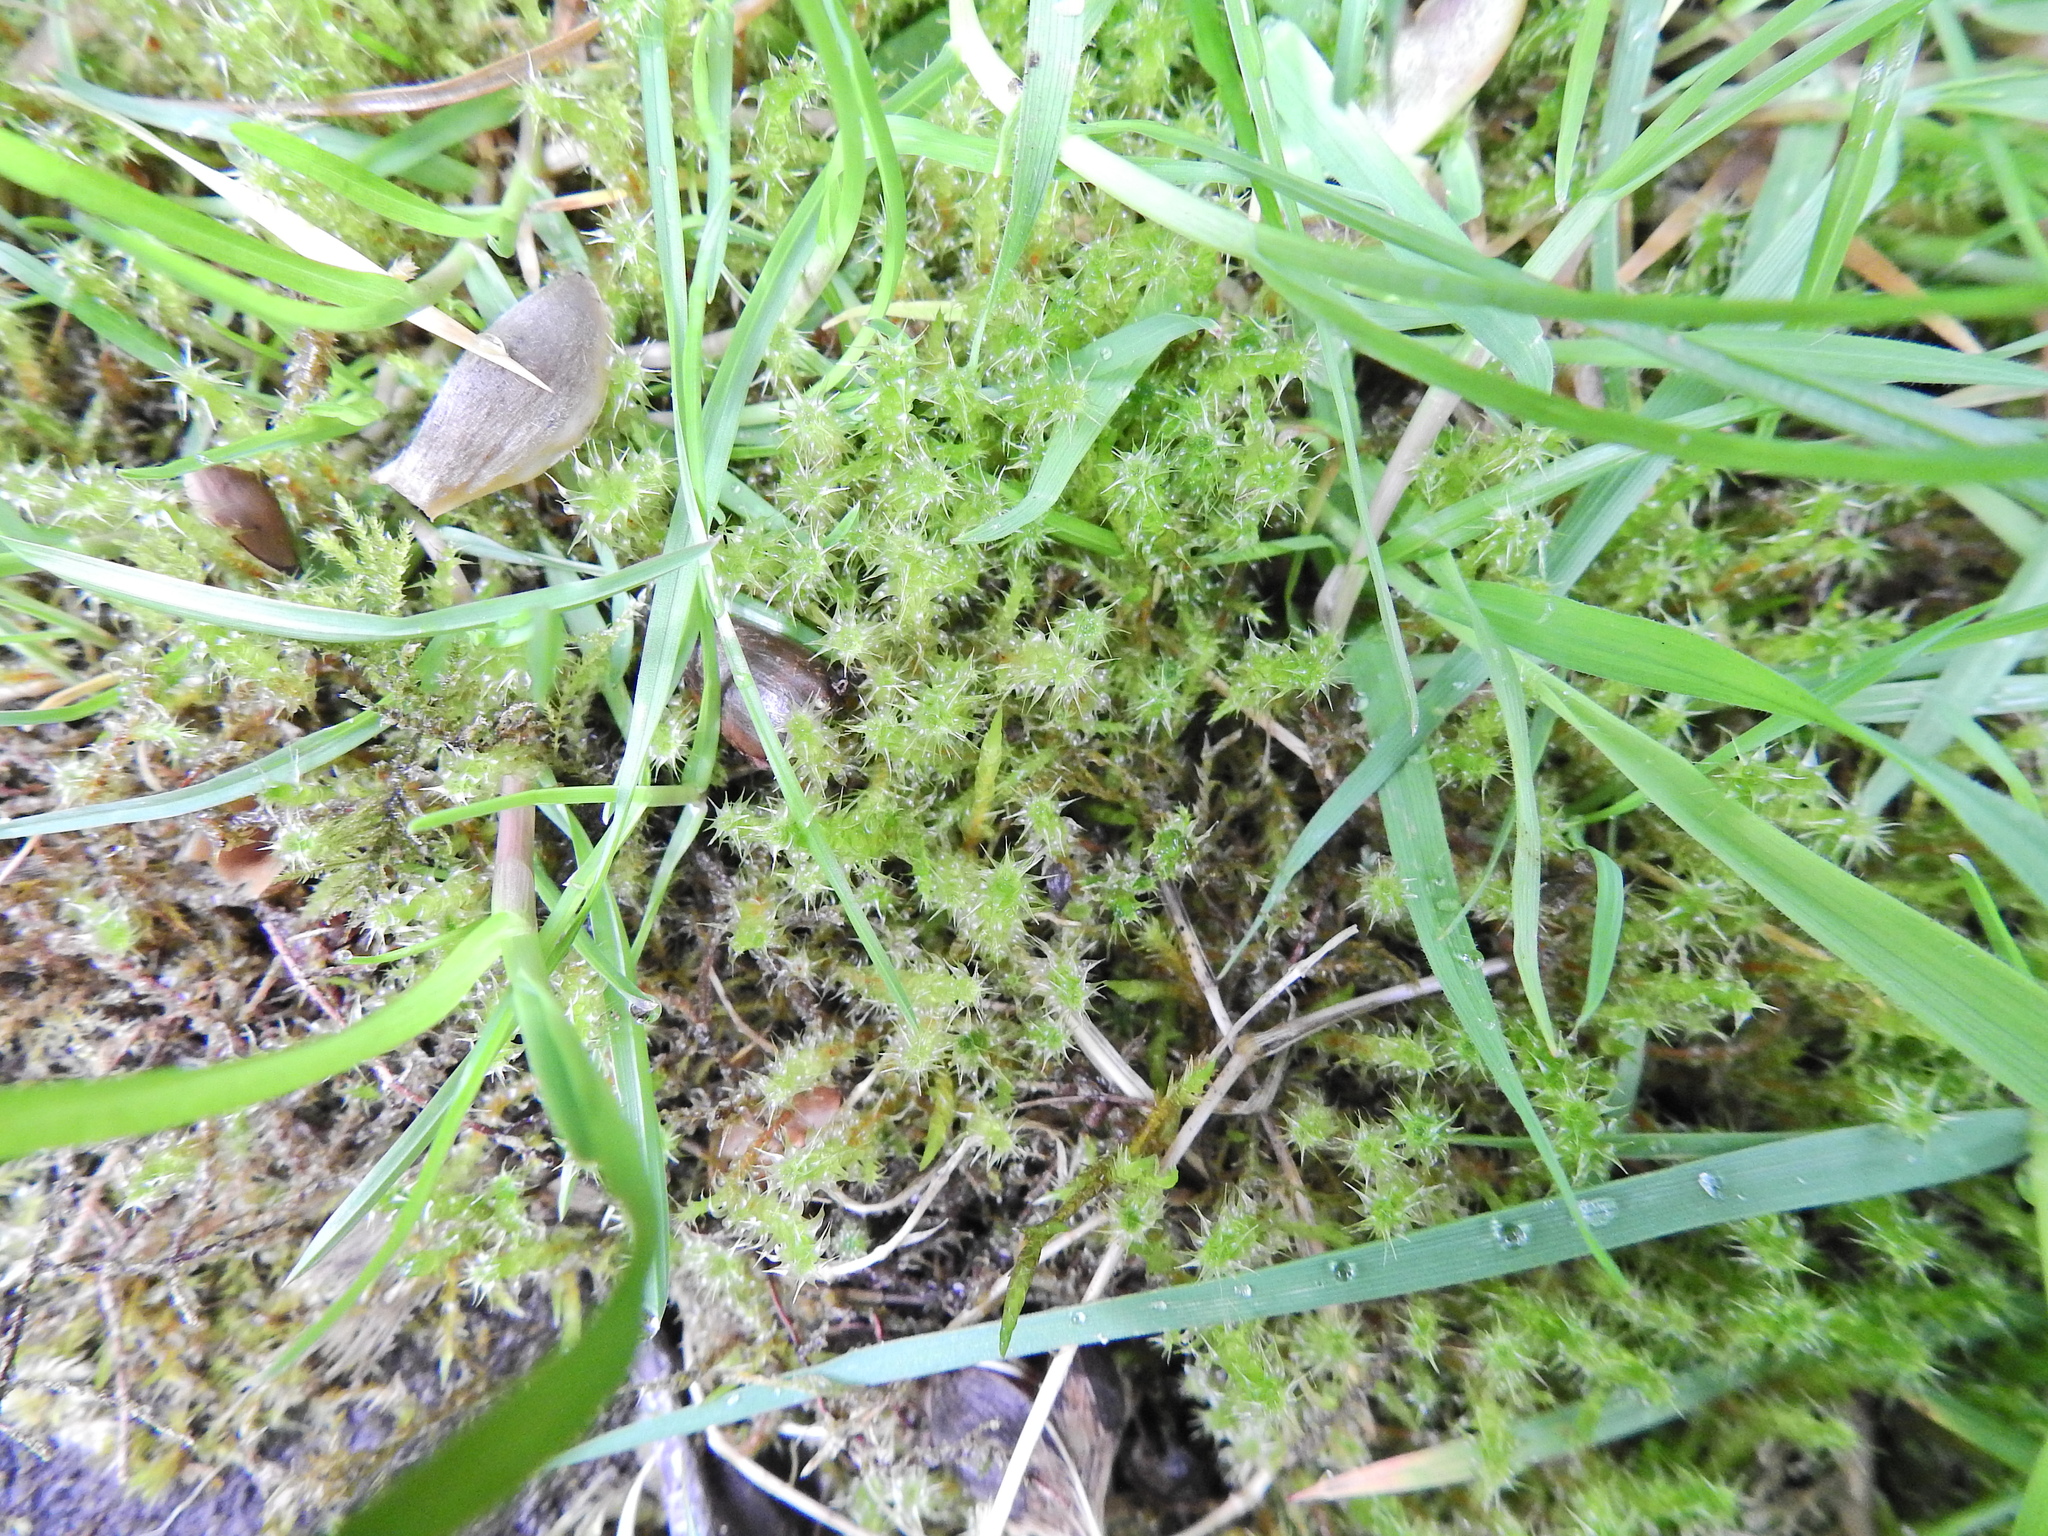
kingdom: Plantae
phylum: Bryophyta
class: Bryopsida
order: Hypnales
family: Hylocomiaceae
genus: Rhytidiadelphus
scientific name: Rhytidiadelphus squarrosus
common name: Springy turf-moss
